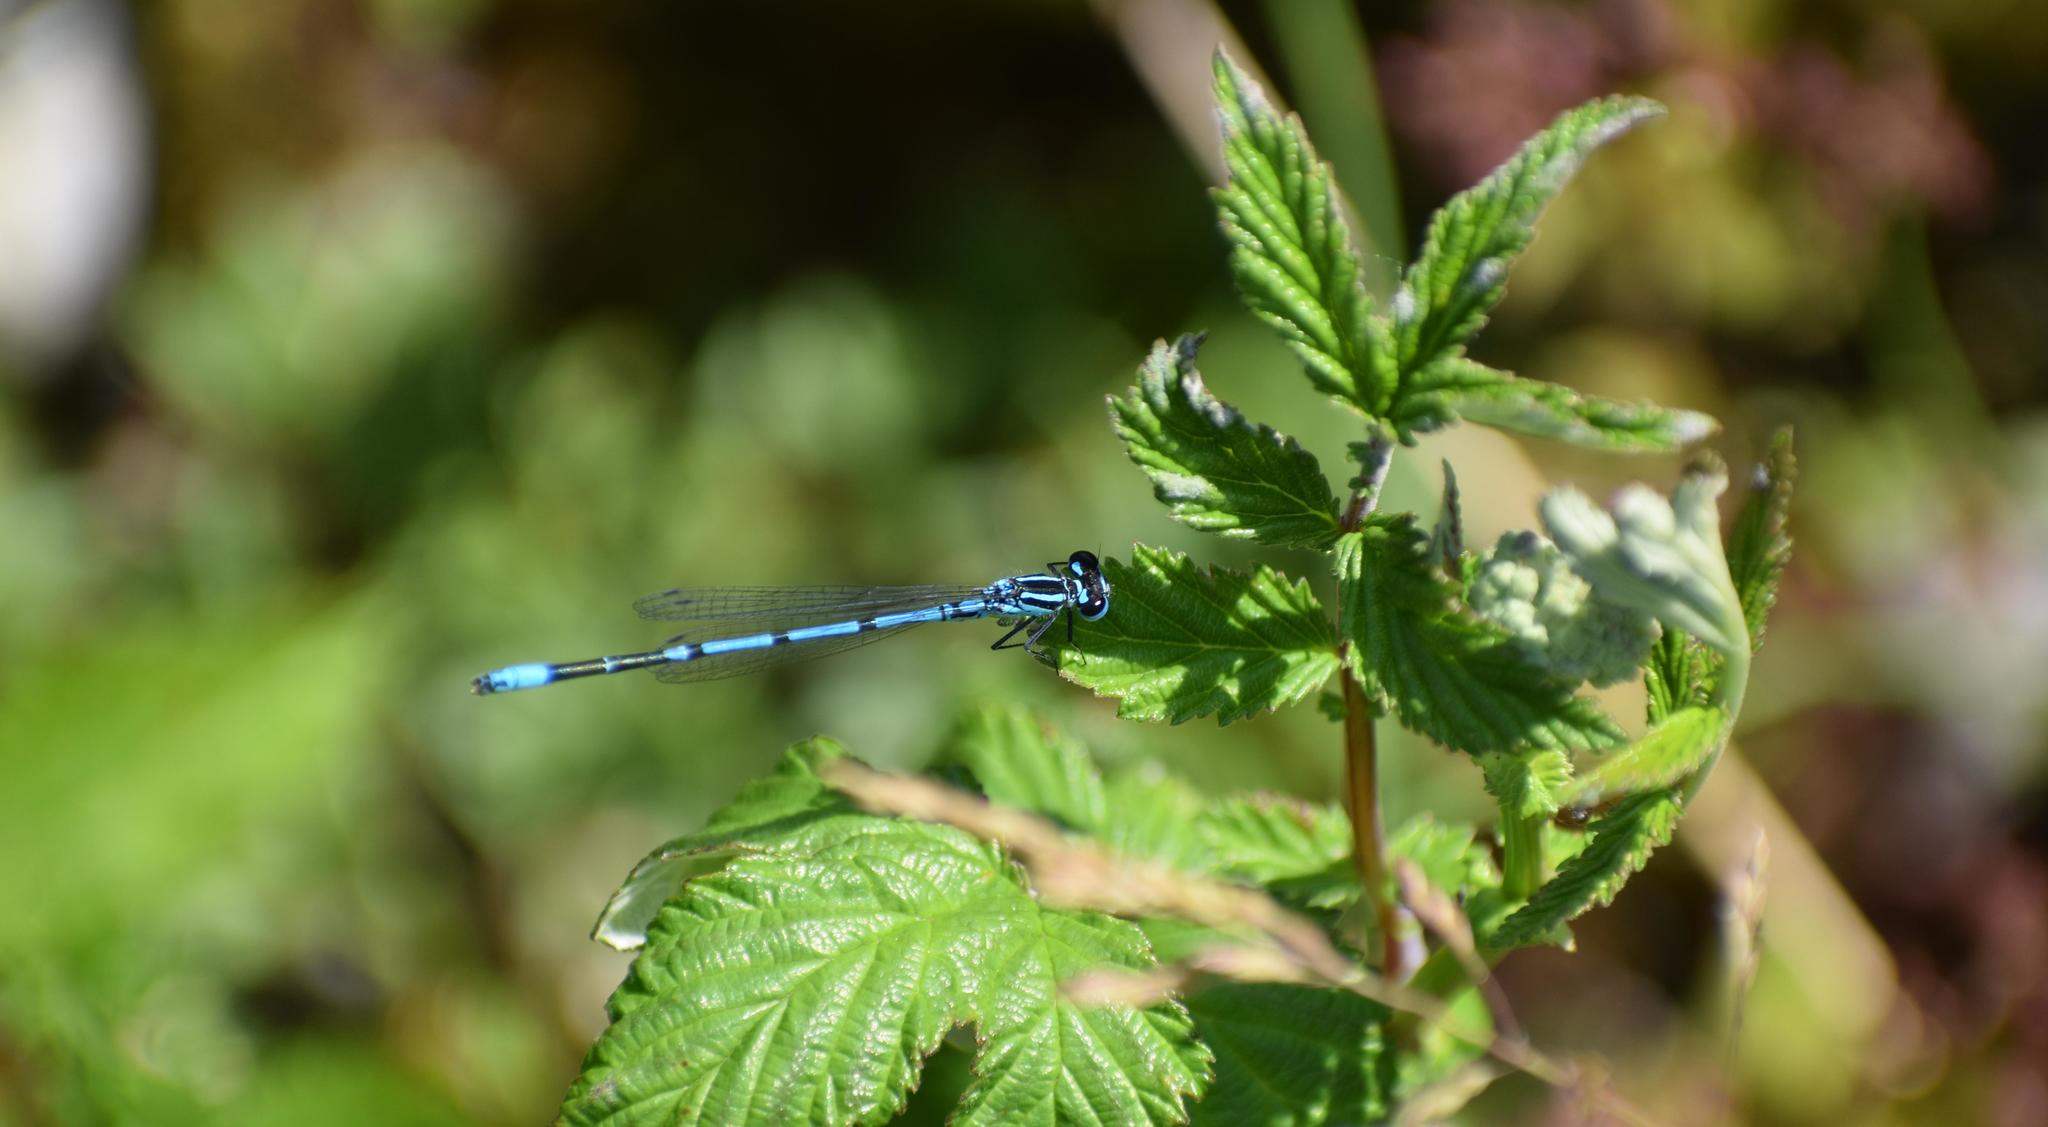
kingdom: Animalia
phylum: Arthropoda
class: Insecta
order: Odonata
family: Coenagrionidae
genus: Coenagrion
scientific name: Coenagrion puella
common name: Azure damselfly
